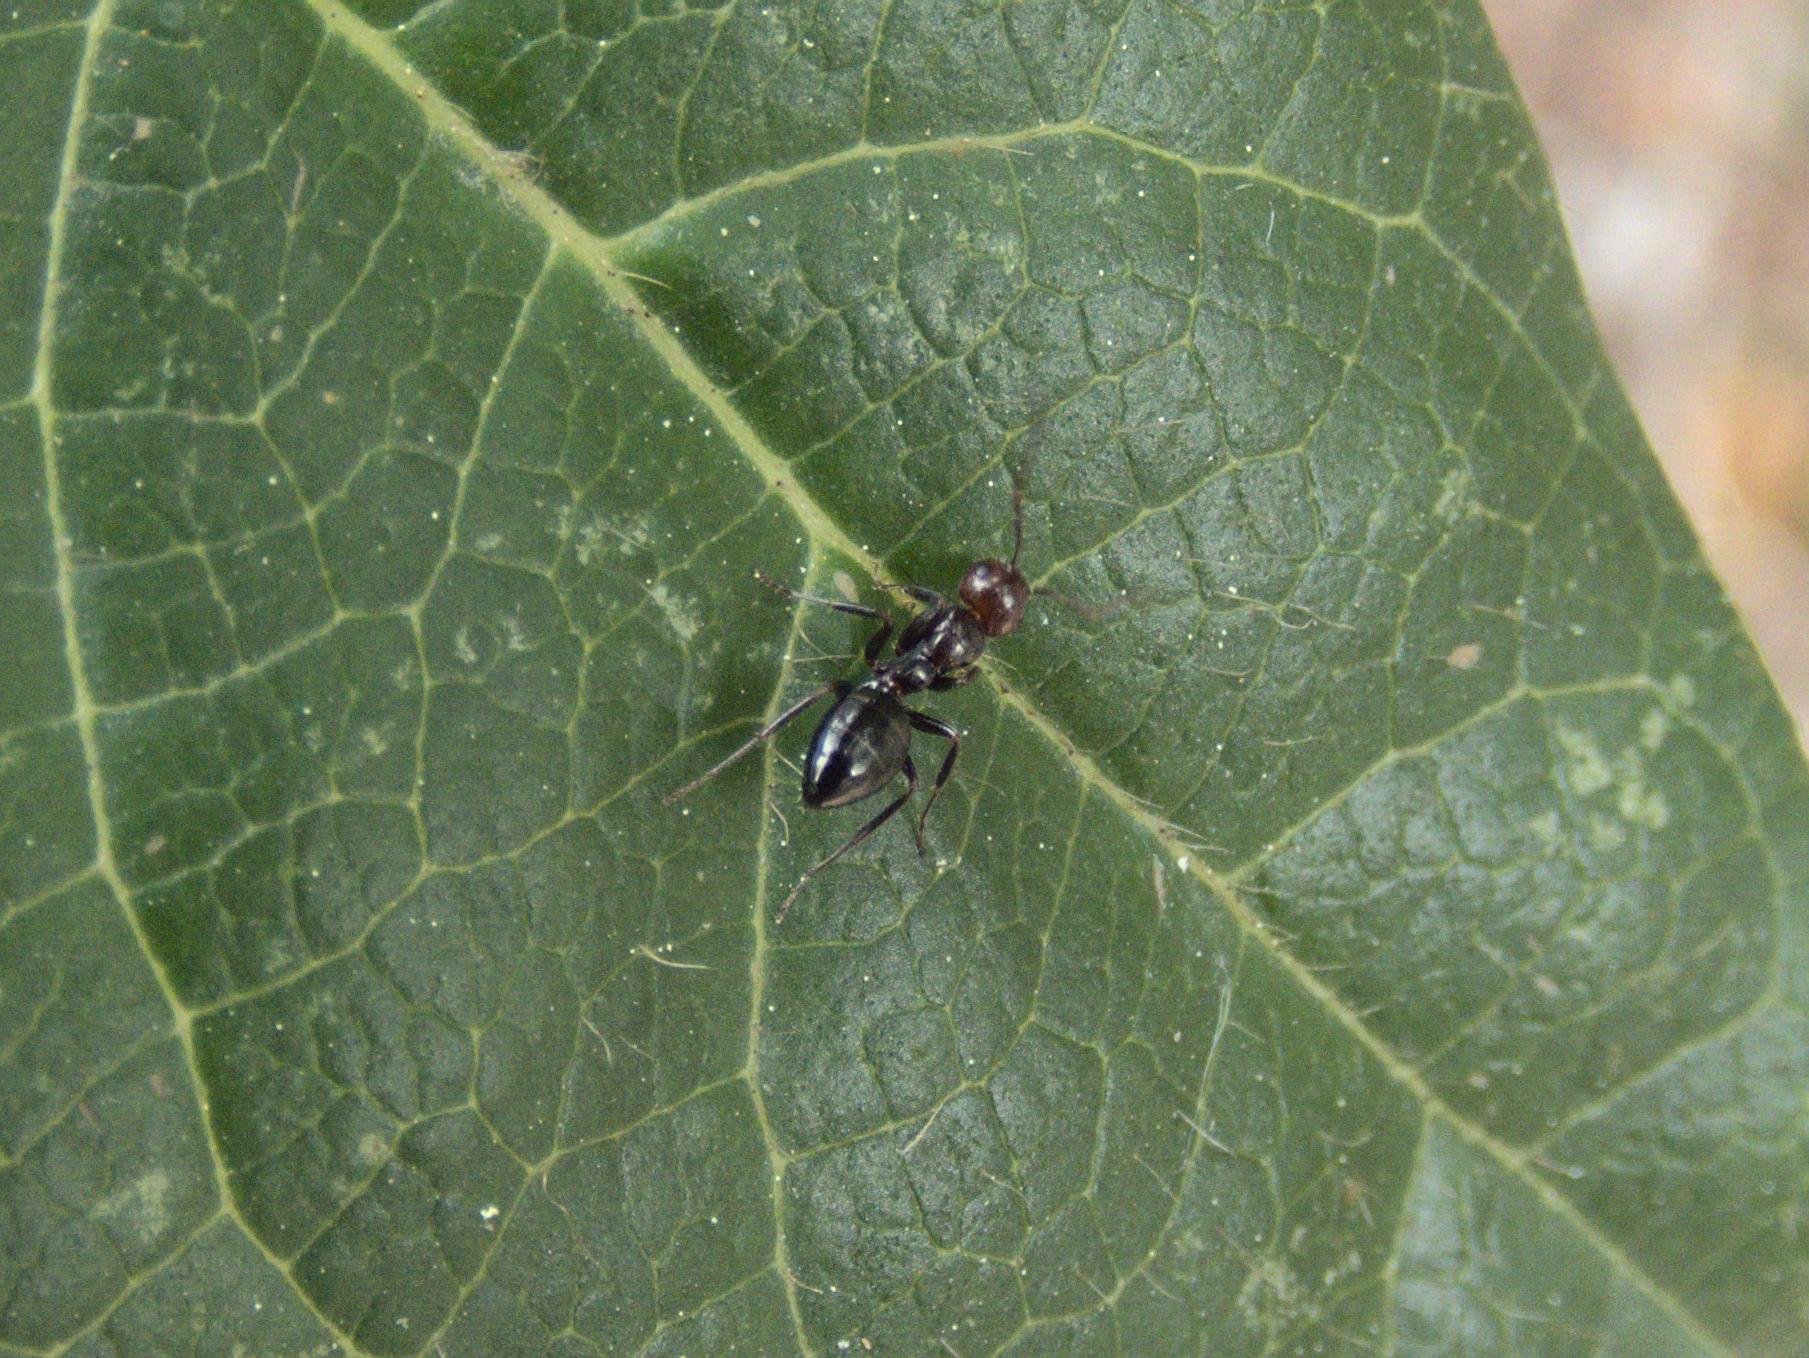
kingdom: Animalia
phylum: Arthropoda
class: Insecta
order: Hymenoptera
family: Formicidae
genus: Camponotus
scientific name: Camponotus lateralis
